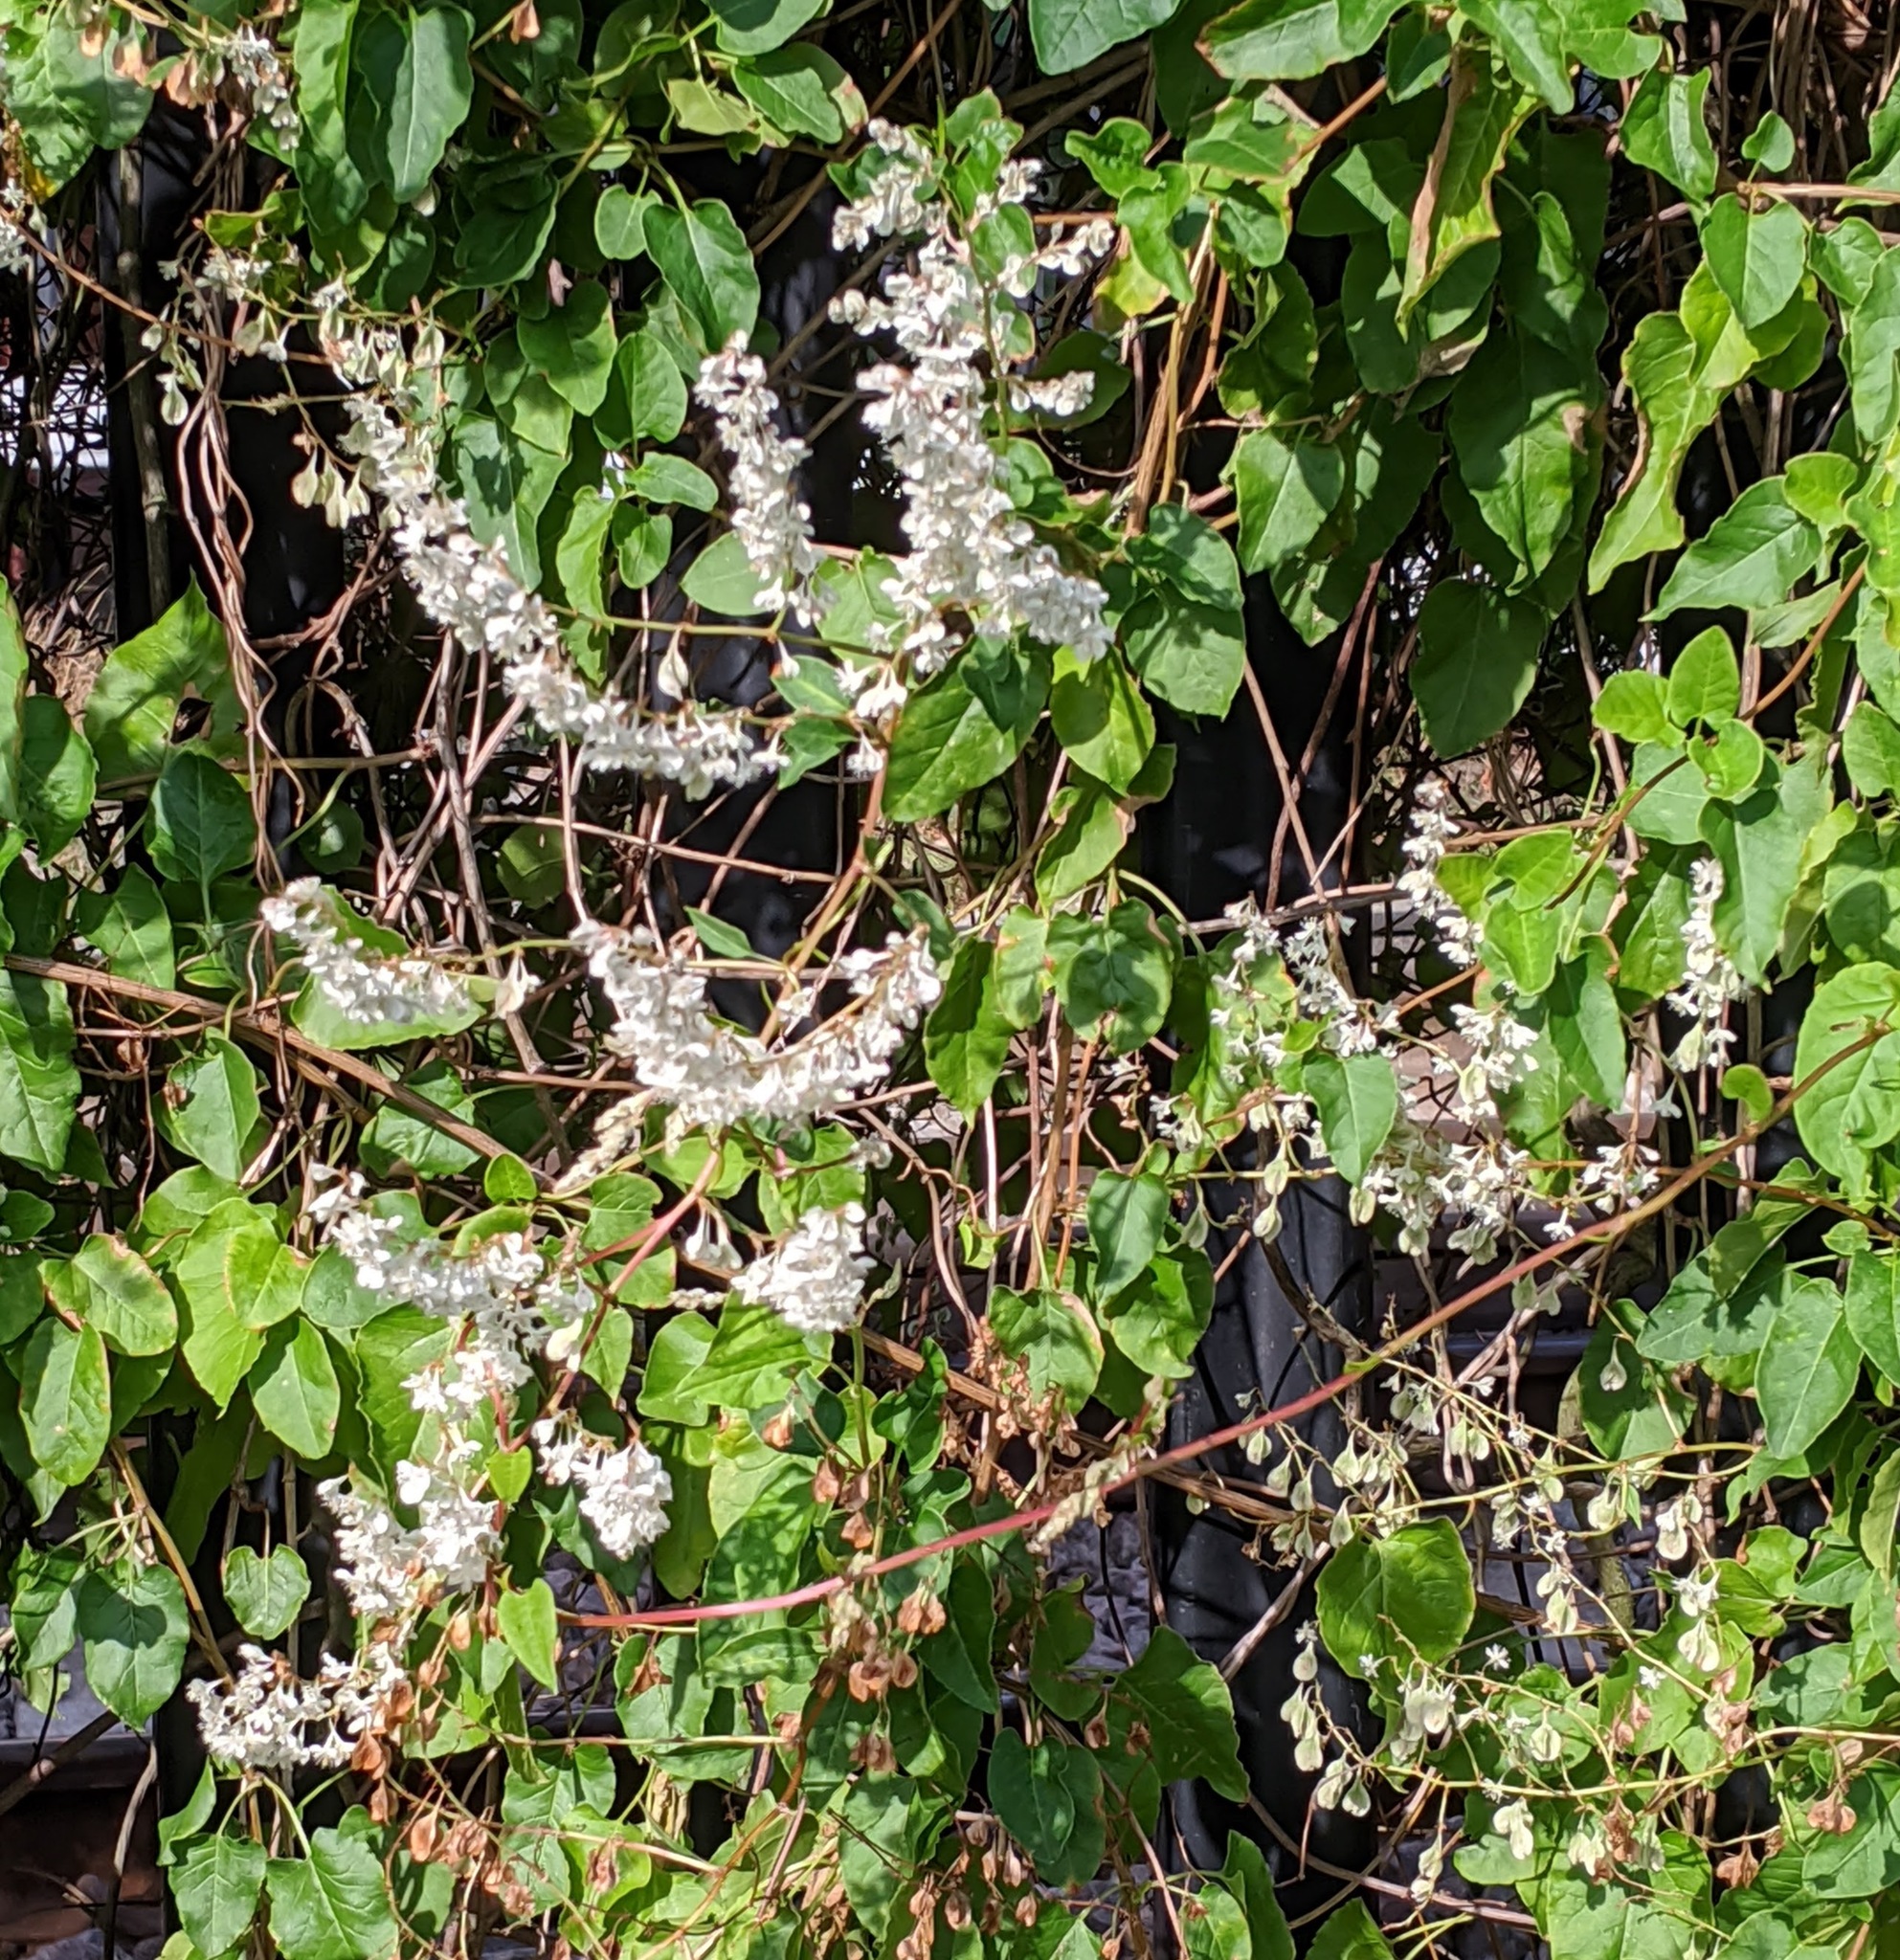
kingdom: Plantae
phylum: Tracheophyta
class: Magnoliopsida
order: Caryophyllales
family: Polygonaceae
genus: Fallopia
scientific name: Fallopia baldschuanica
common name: Russian-vine
